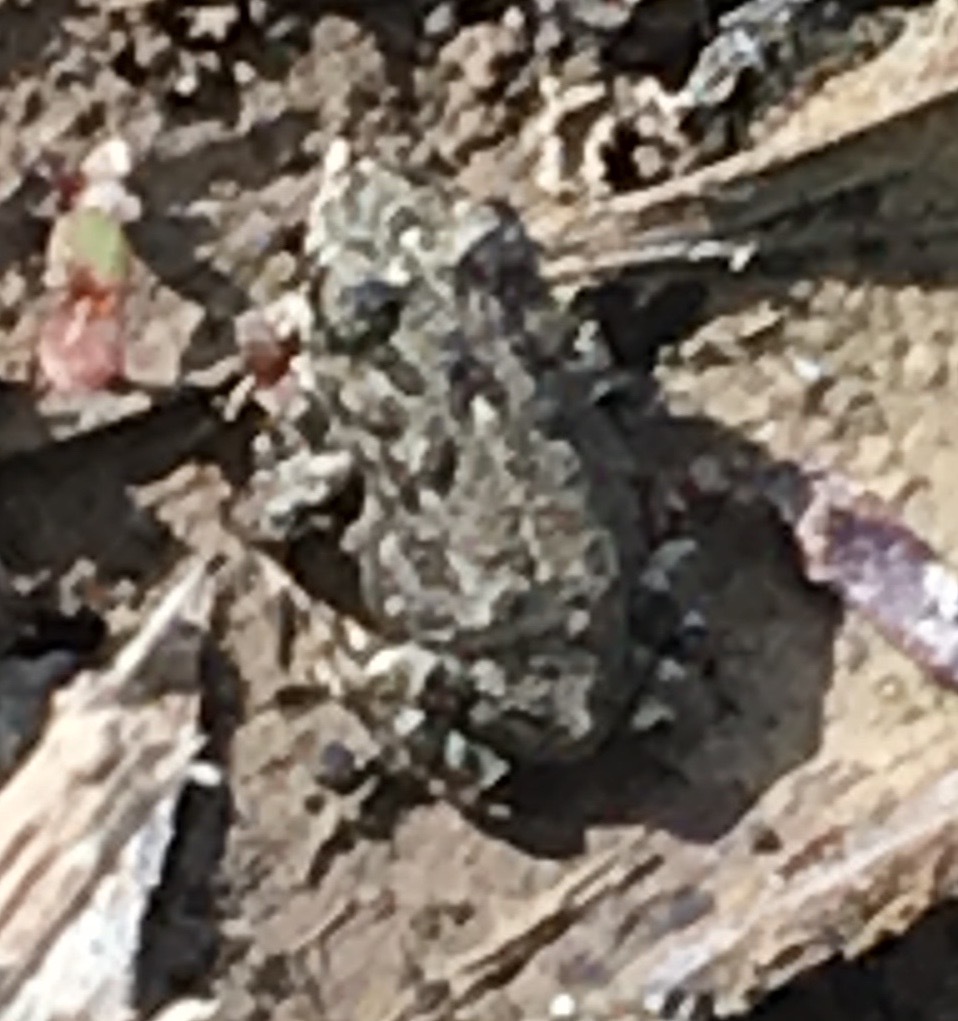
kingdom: Animalia
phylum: Chordata
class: Amphibia
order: Anura
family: Bufonidae
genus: Anaxyrus
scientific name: Anaxyrus boreas
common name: Western toad
